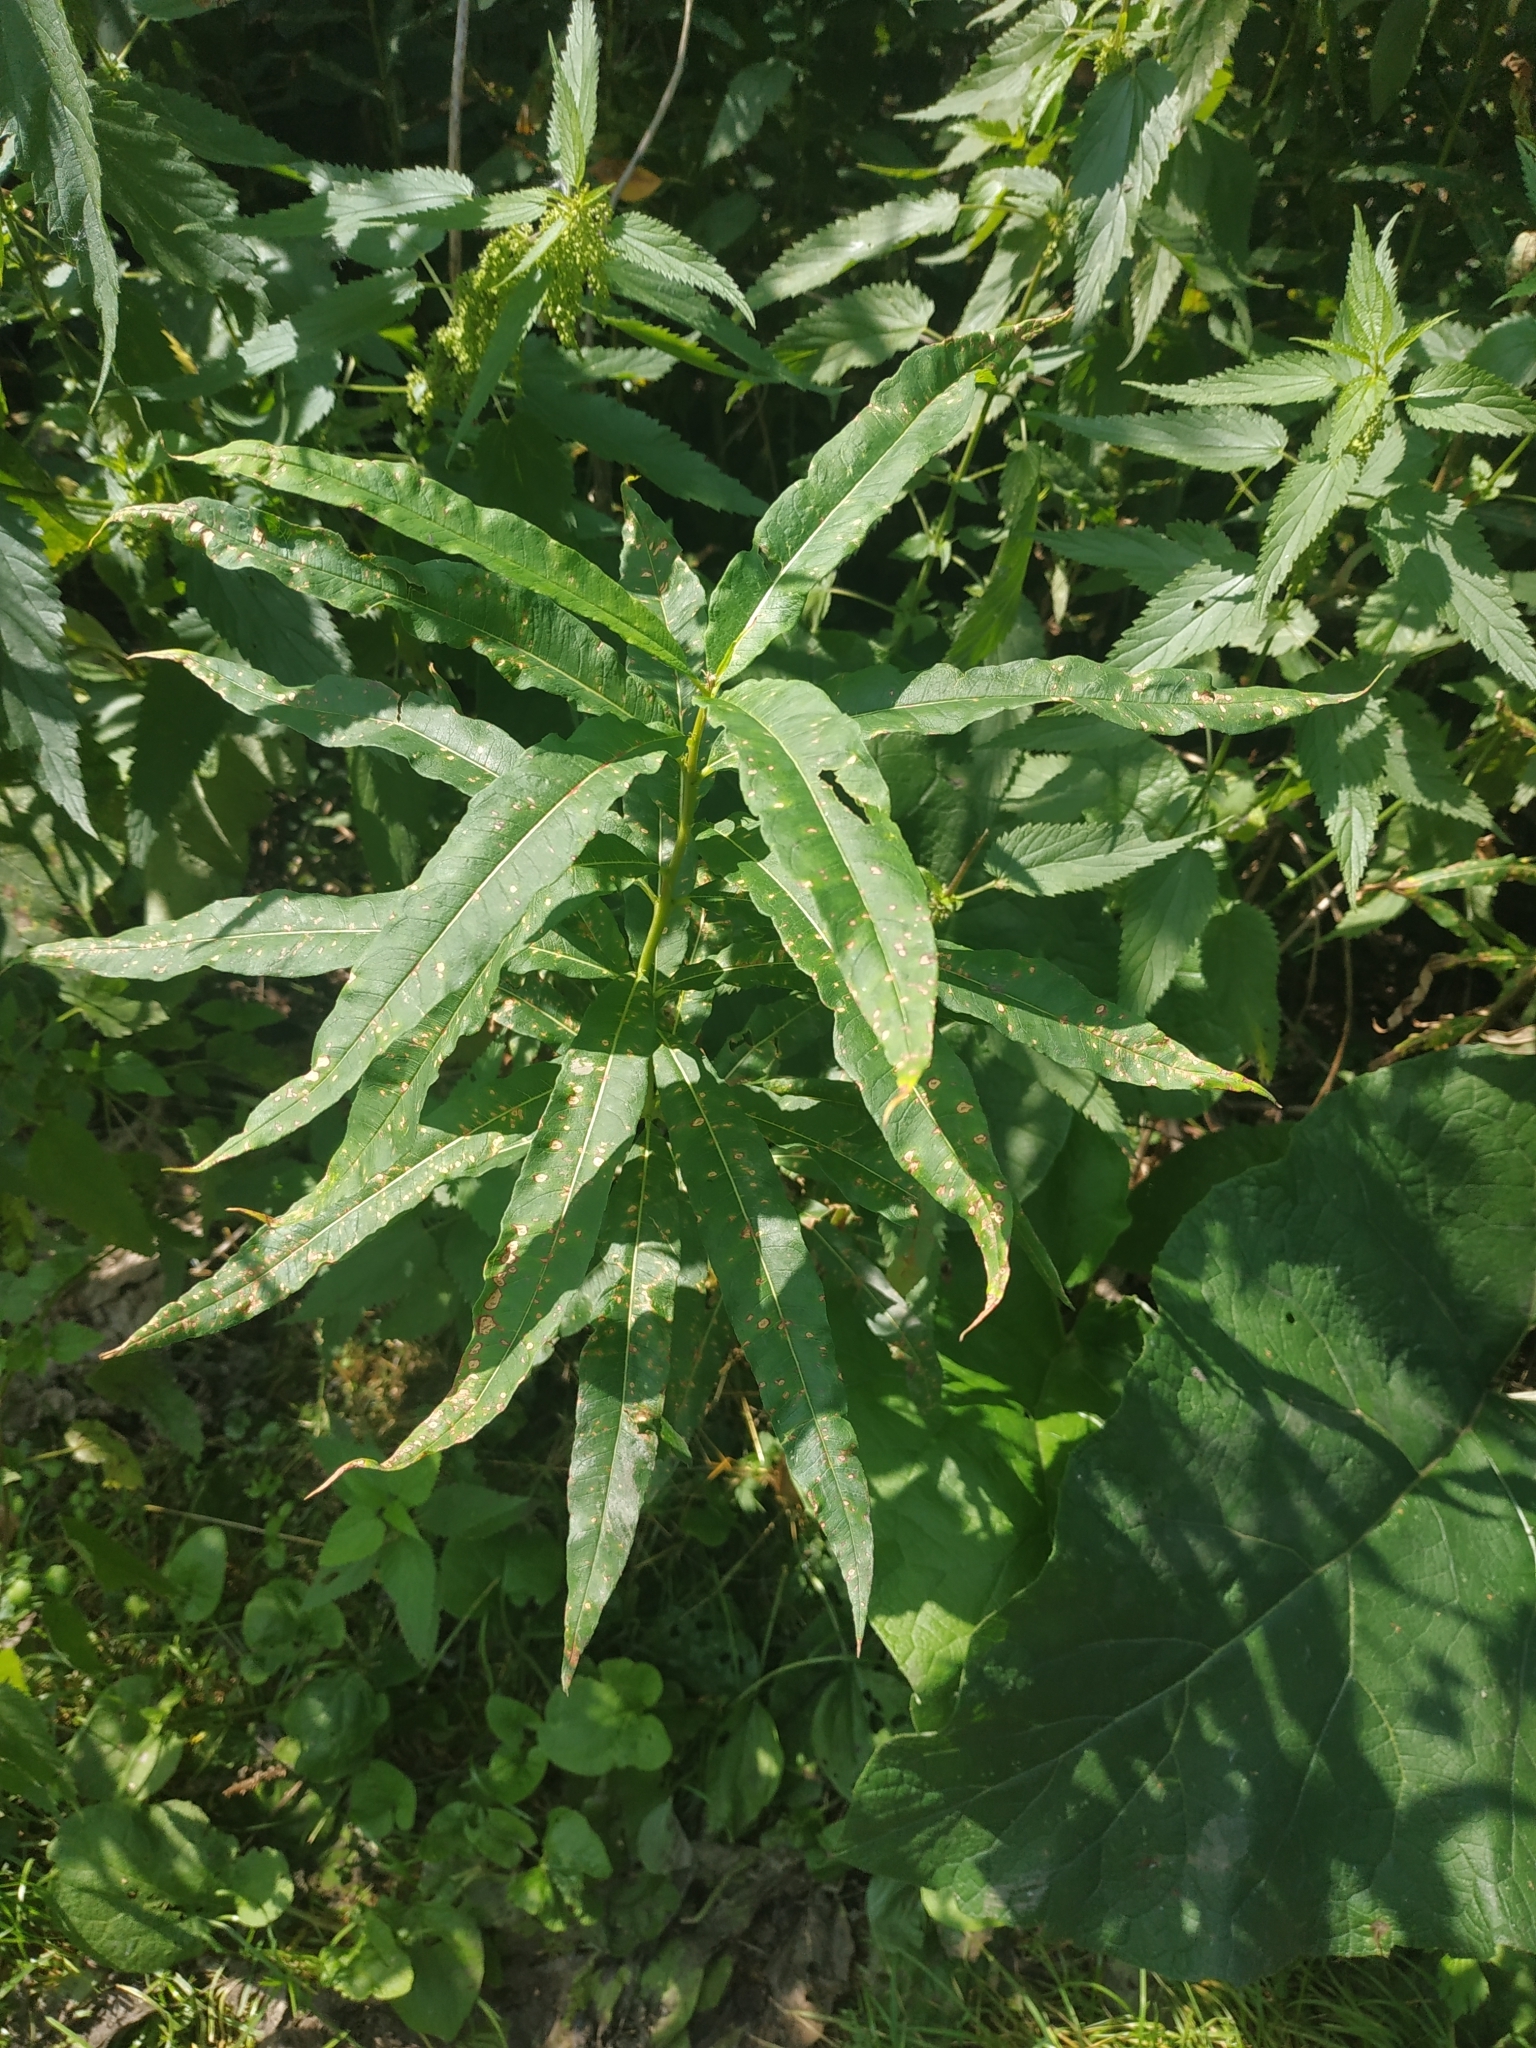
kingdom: Plantae
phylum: Tracheophyta
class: Magnoliopsida
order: Myrtales
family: Onagraceae
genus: Chamaenerion
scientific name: Chamaenerion angustifolium
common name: Fireweed
